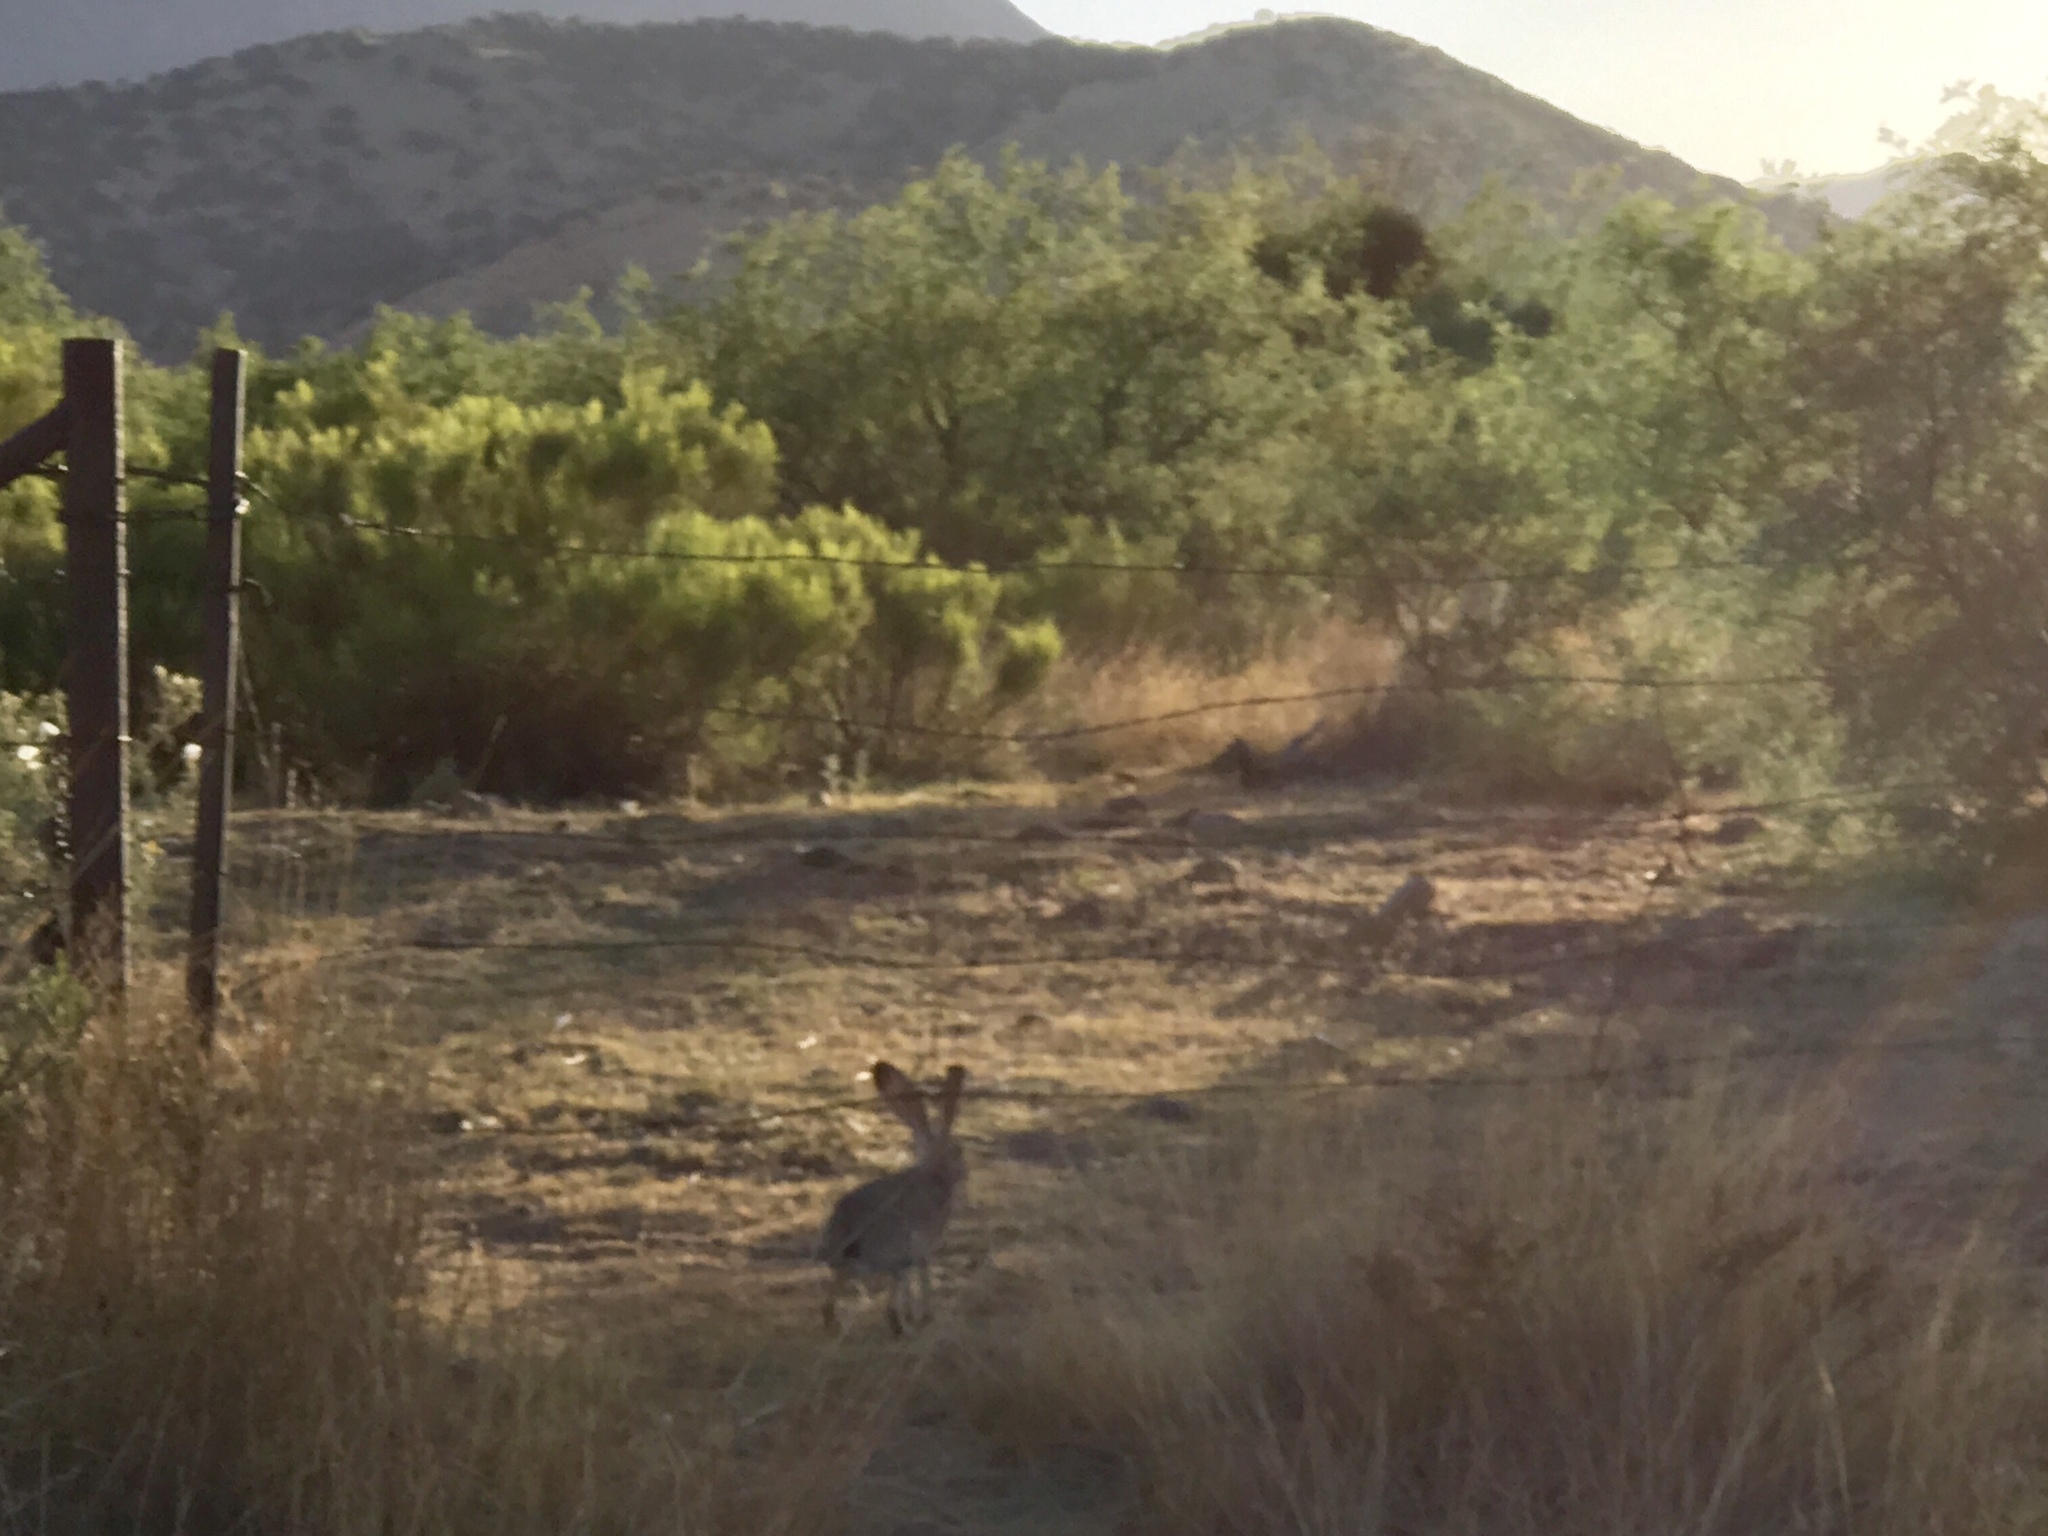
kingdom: Animalia
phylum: Chordata
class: Mammalia
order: Lagomorpha
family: Leporidae
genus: Lepus
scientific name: Lepus californicus
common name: Black-tailed jackrabbit
